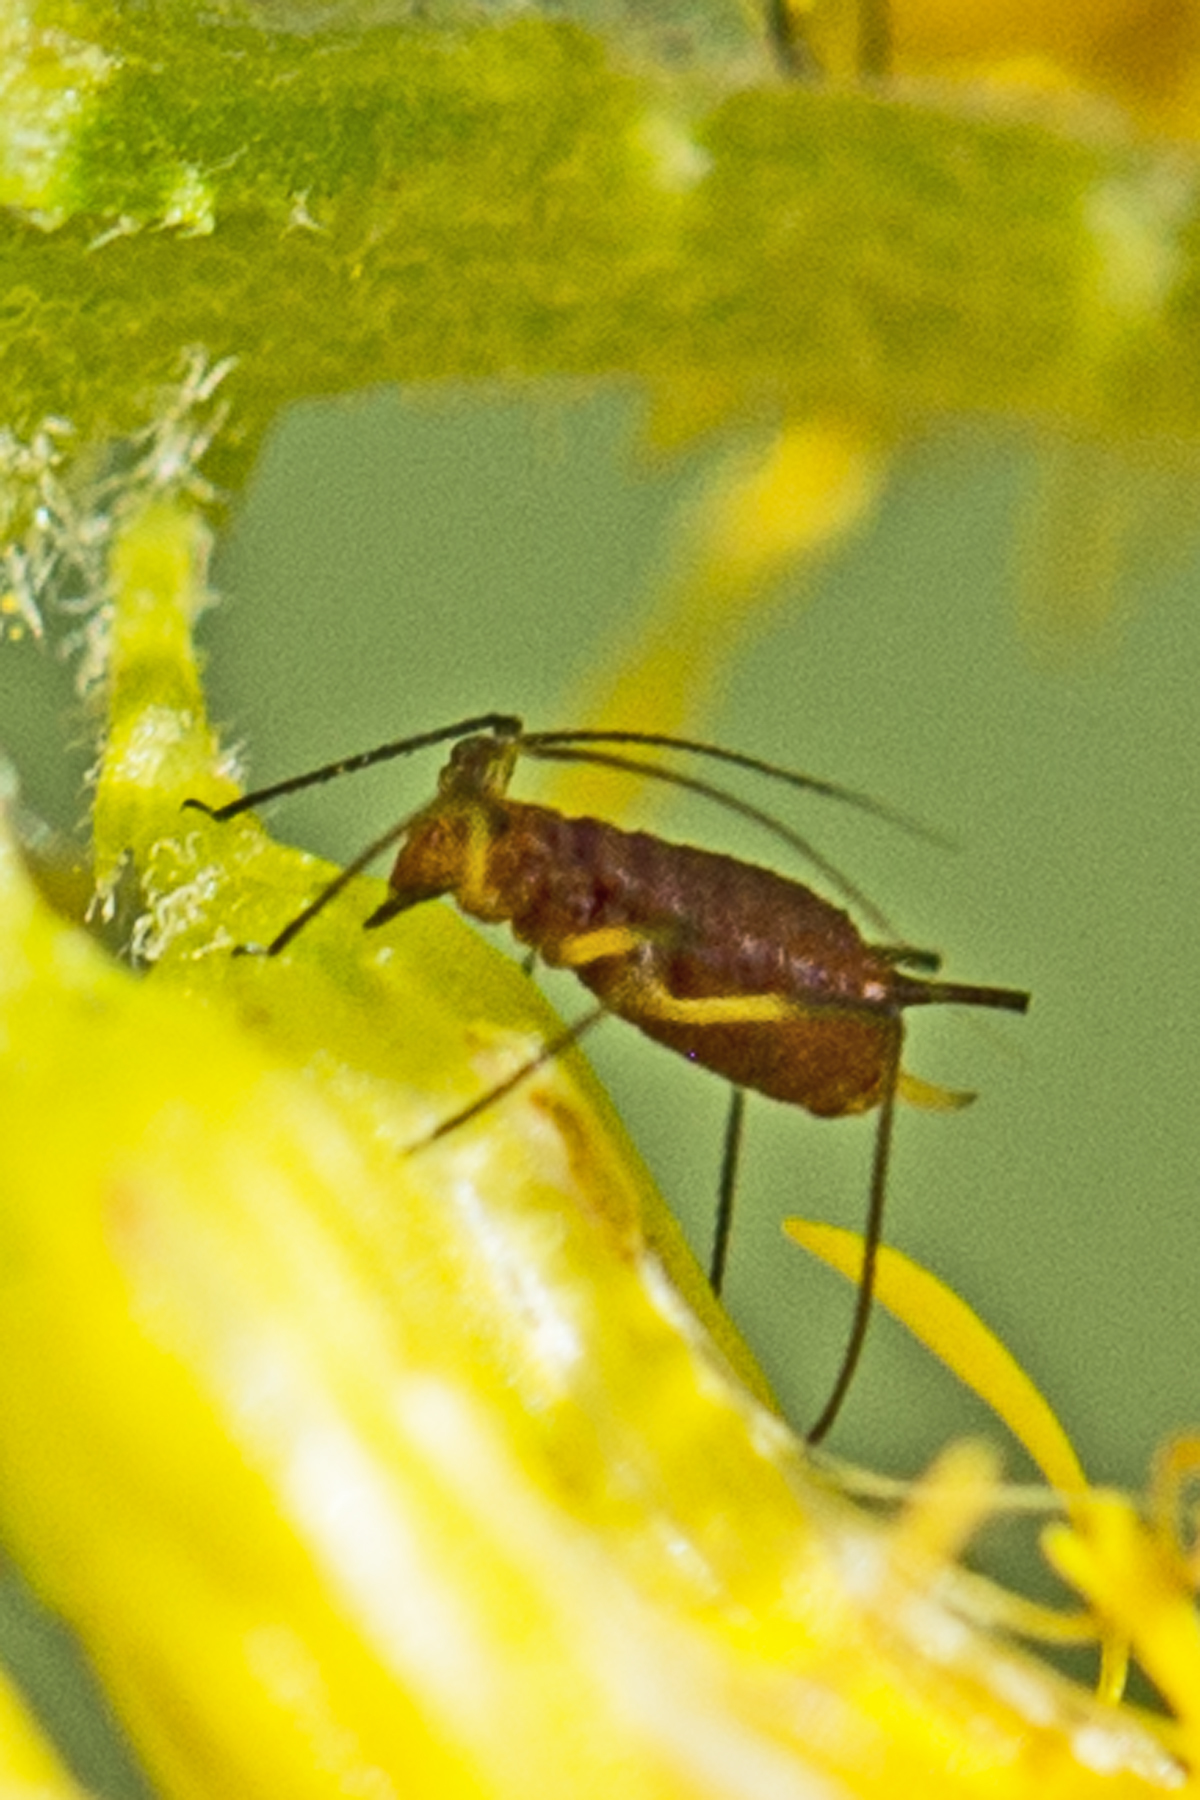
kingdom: Animalia
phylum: Arthropoda
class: Insecta
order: Hemiptera
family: Aphididae
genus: Uroleucon
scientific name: Uroleucon
